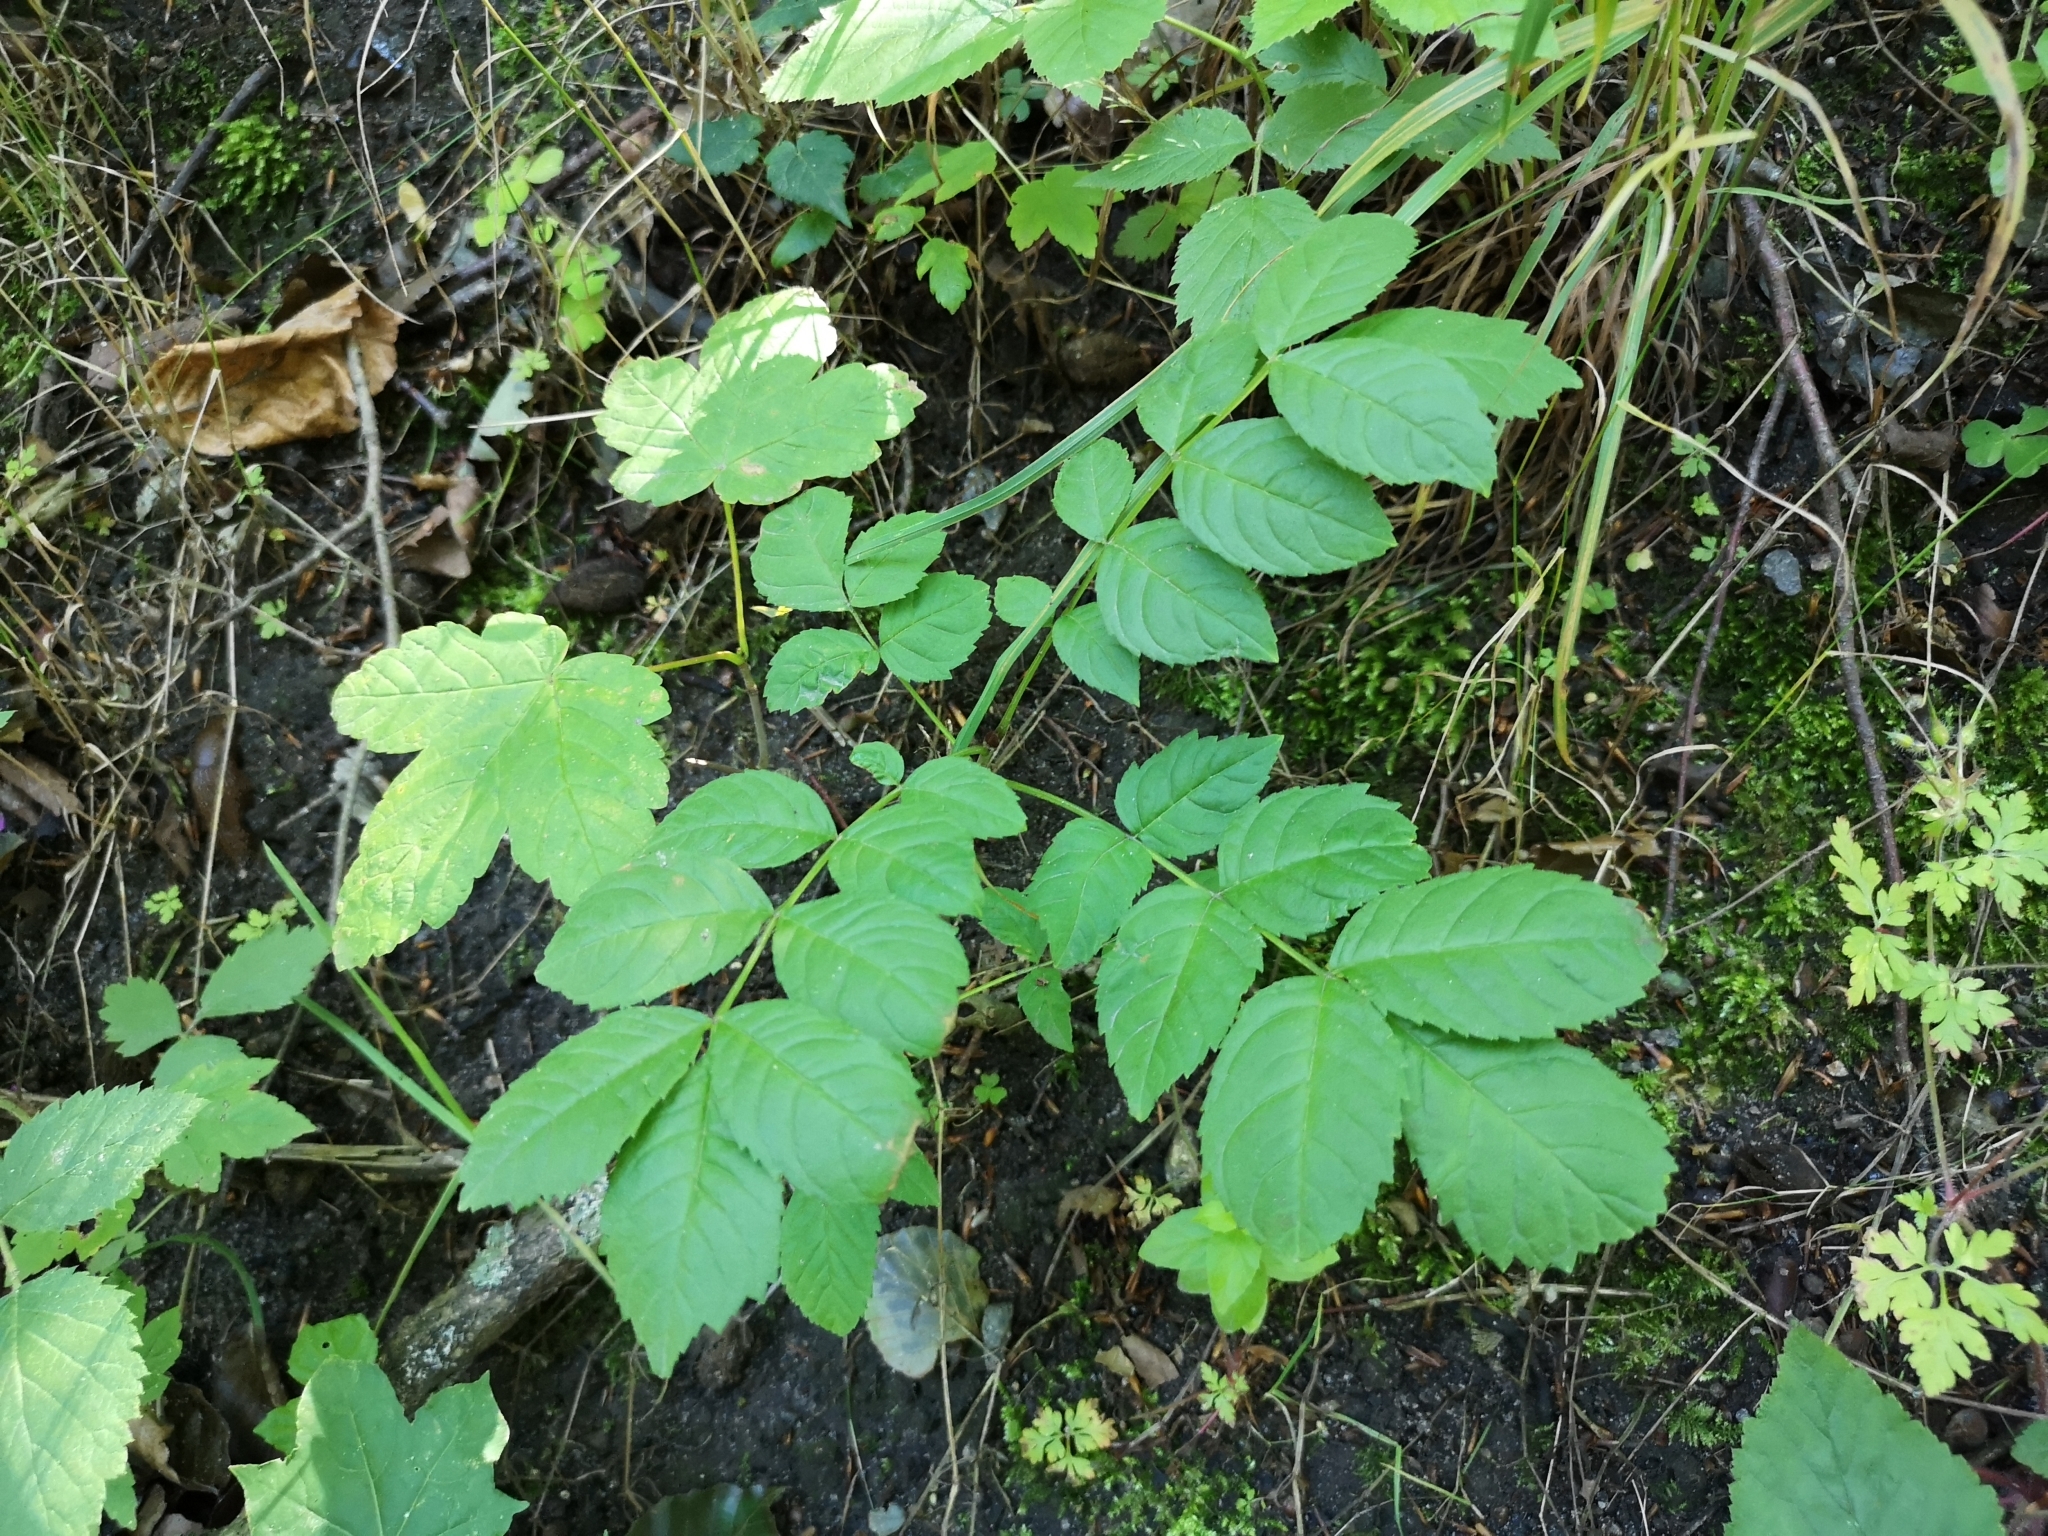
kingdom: Plantae
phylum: Tracheophyta
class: Magnoliopsida
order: Lamiales
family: Oleaceae
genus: Fraxinus
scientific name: Fraxinus excelsior
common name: European ash
